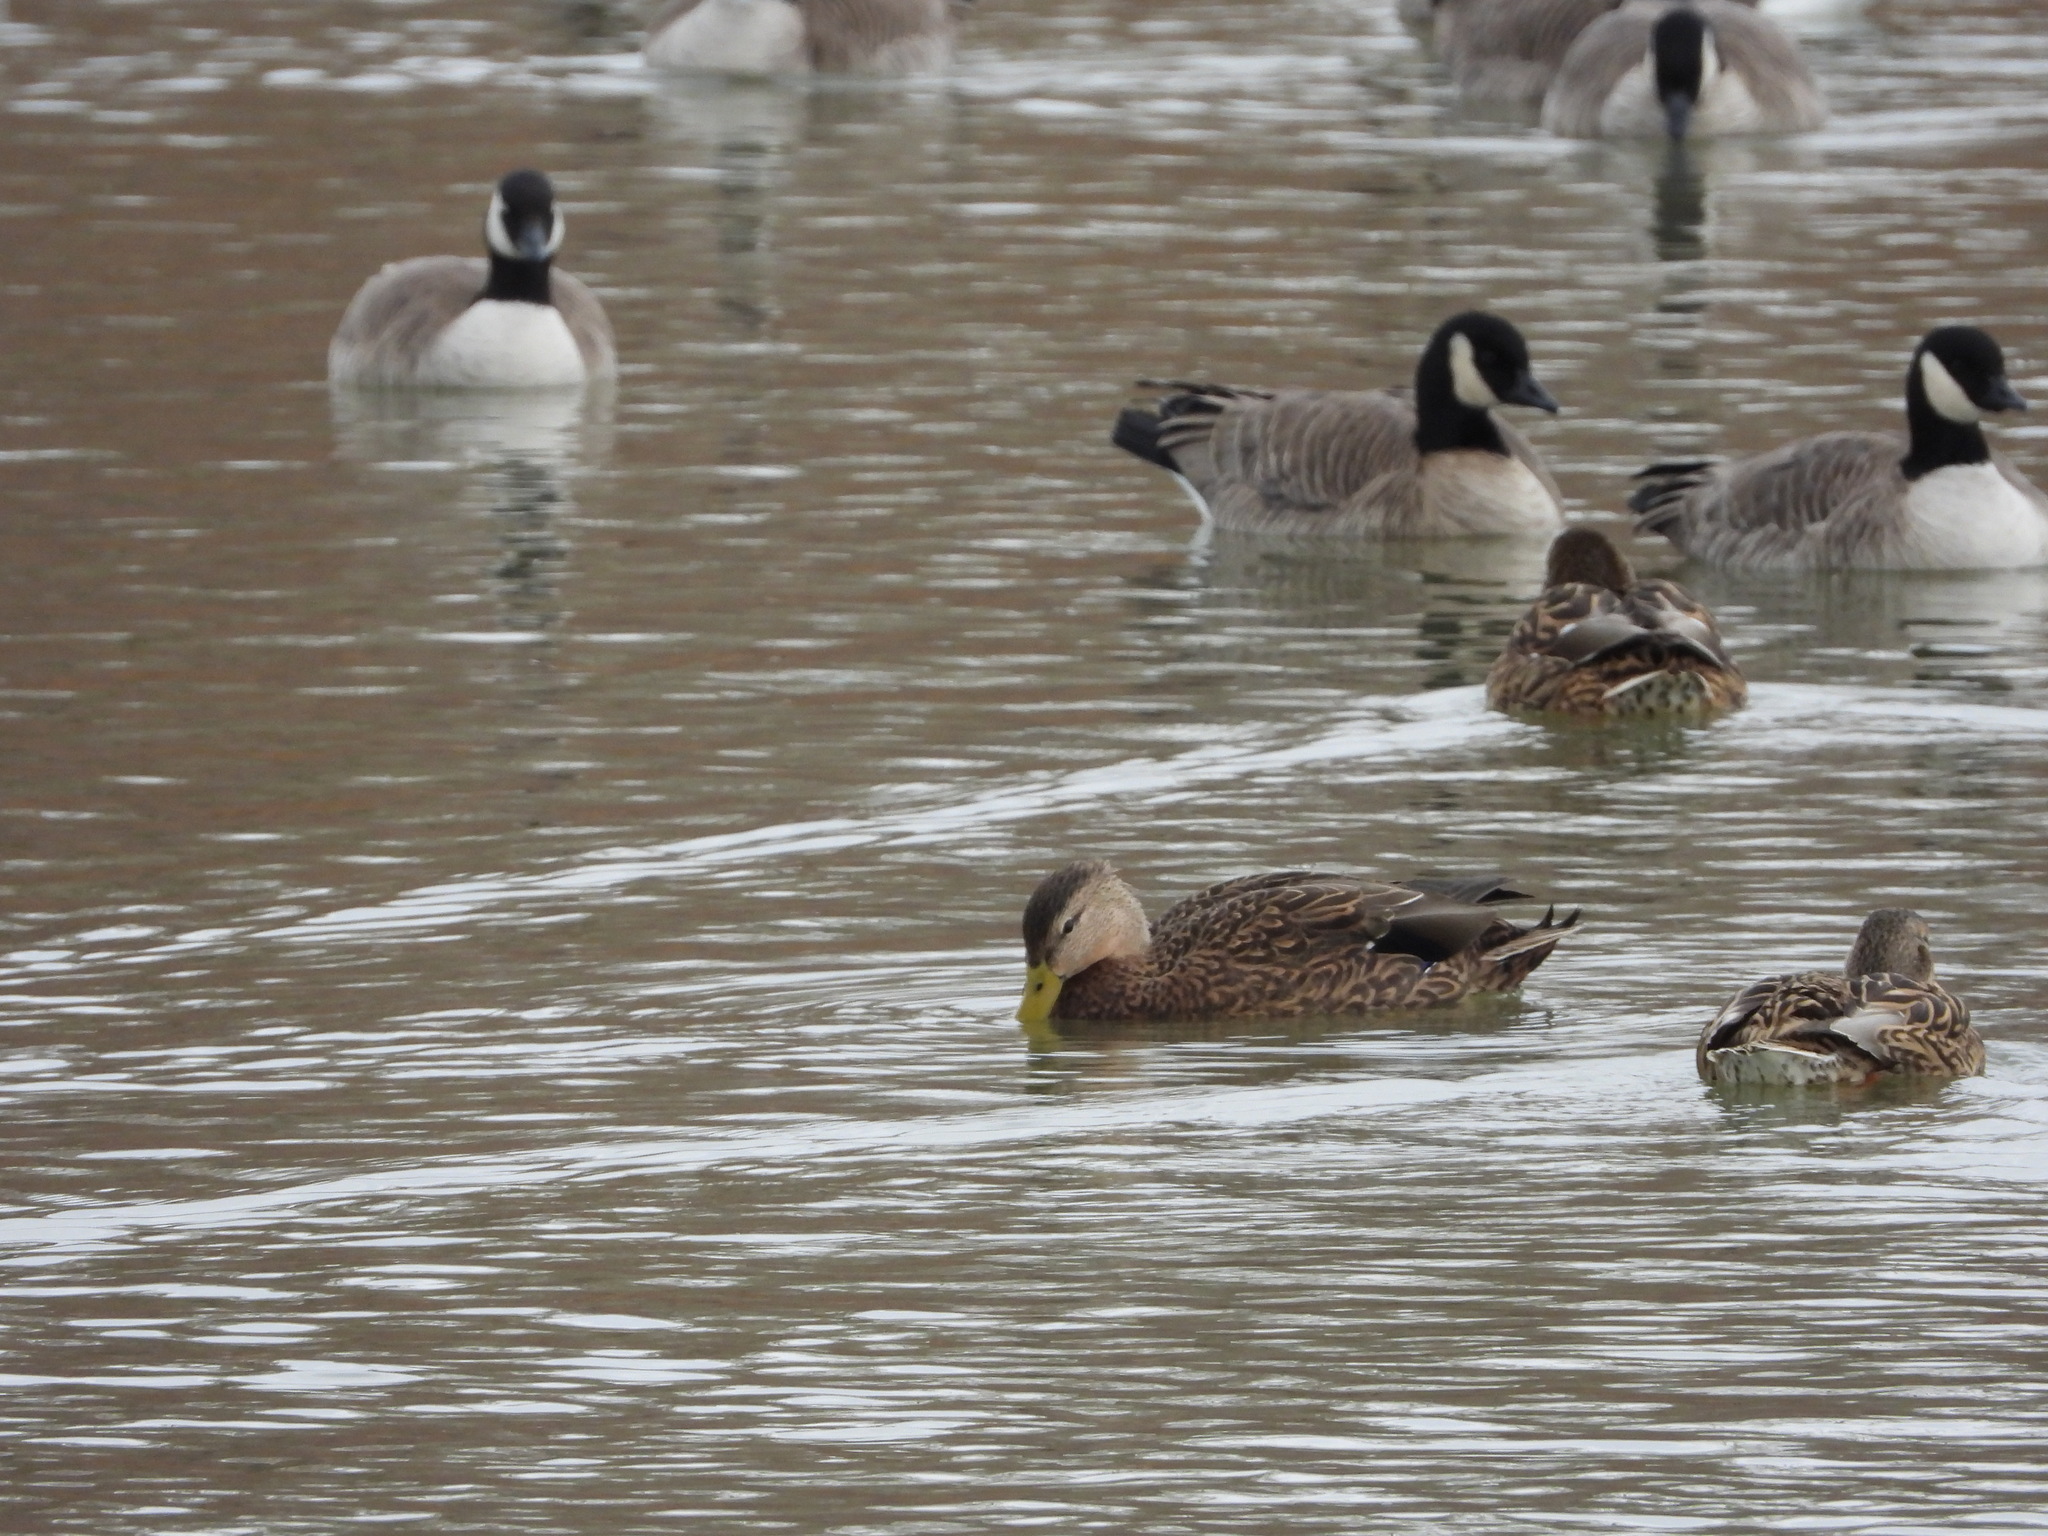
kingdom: Animalia
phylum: Chordata
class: Aves
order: Anseriformes
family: Anatidae
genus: Anas
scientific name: Anas
